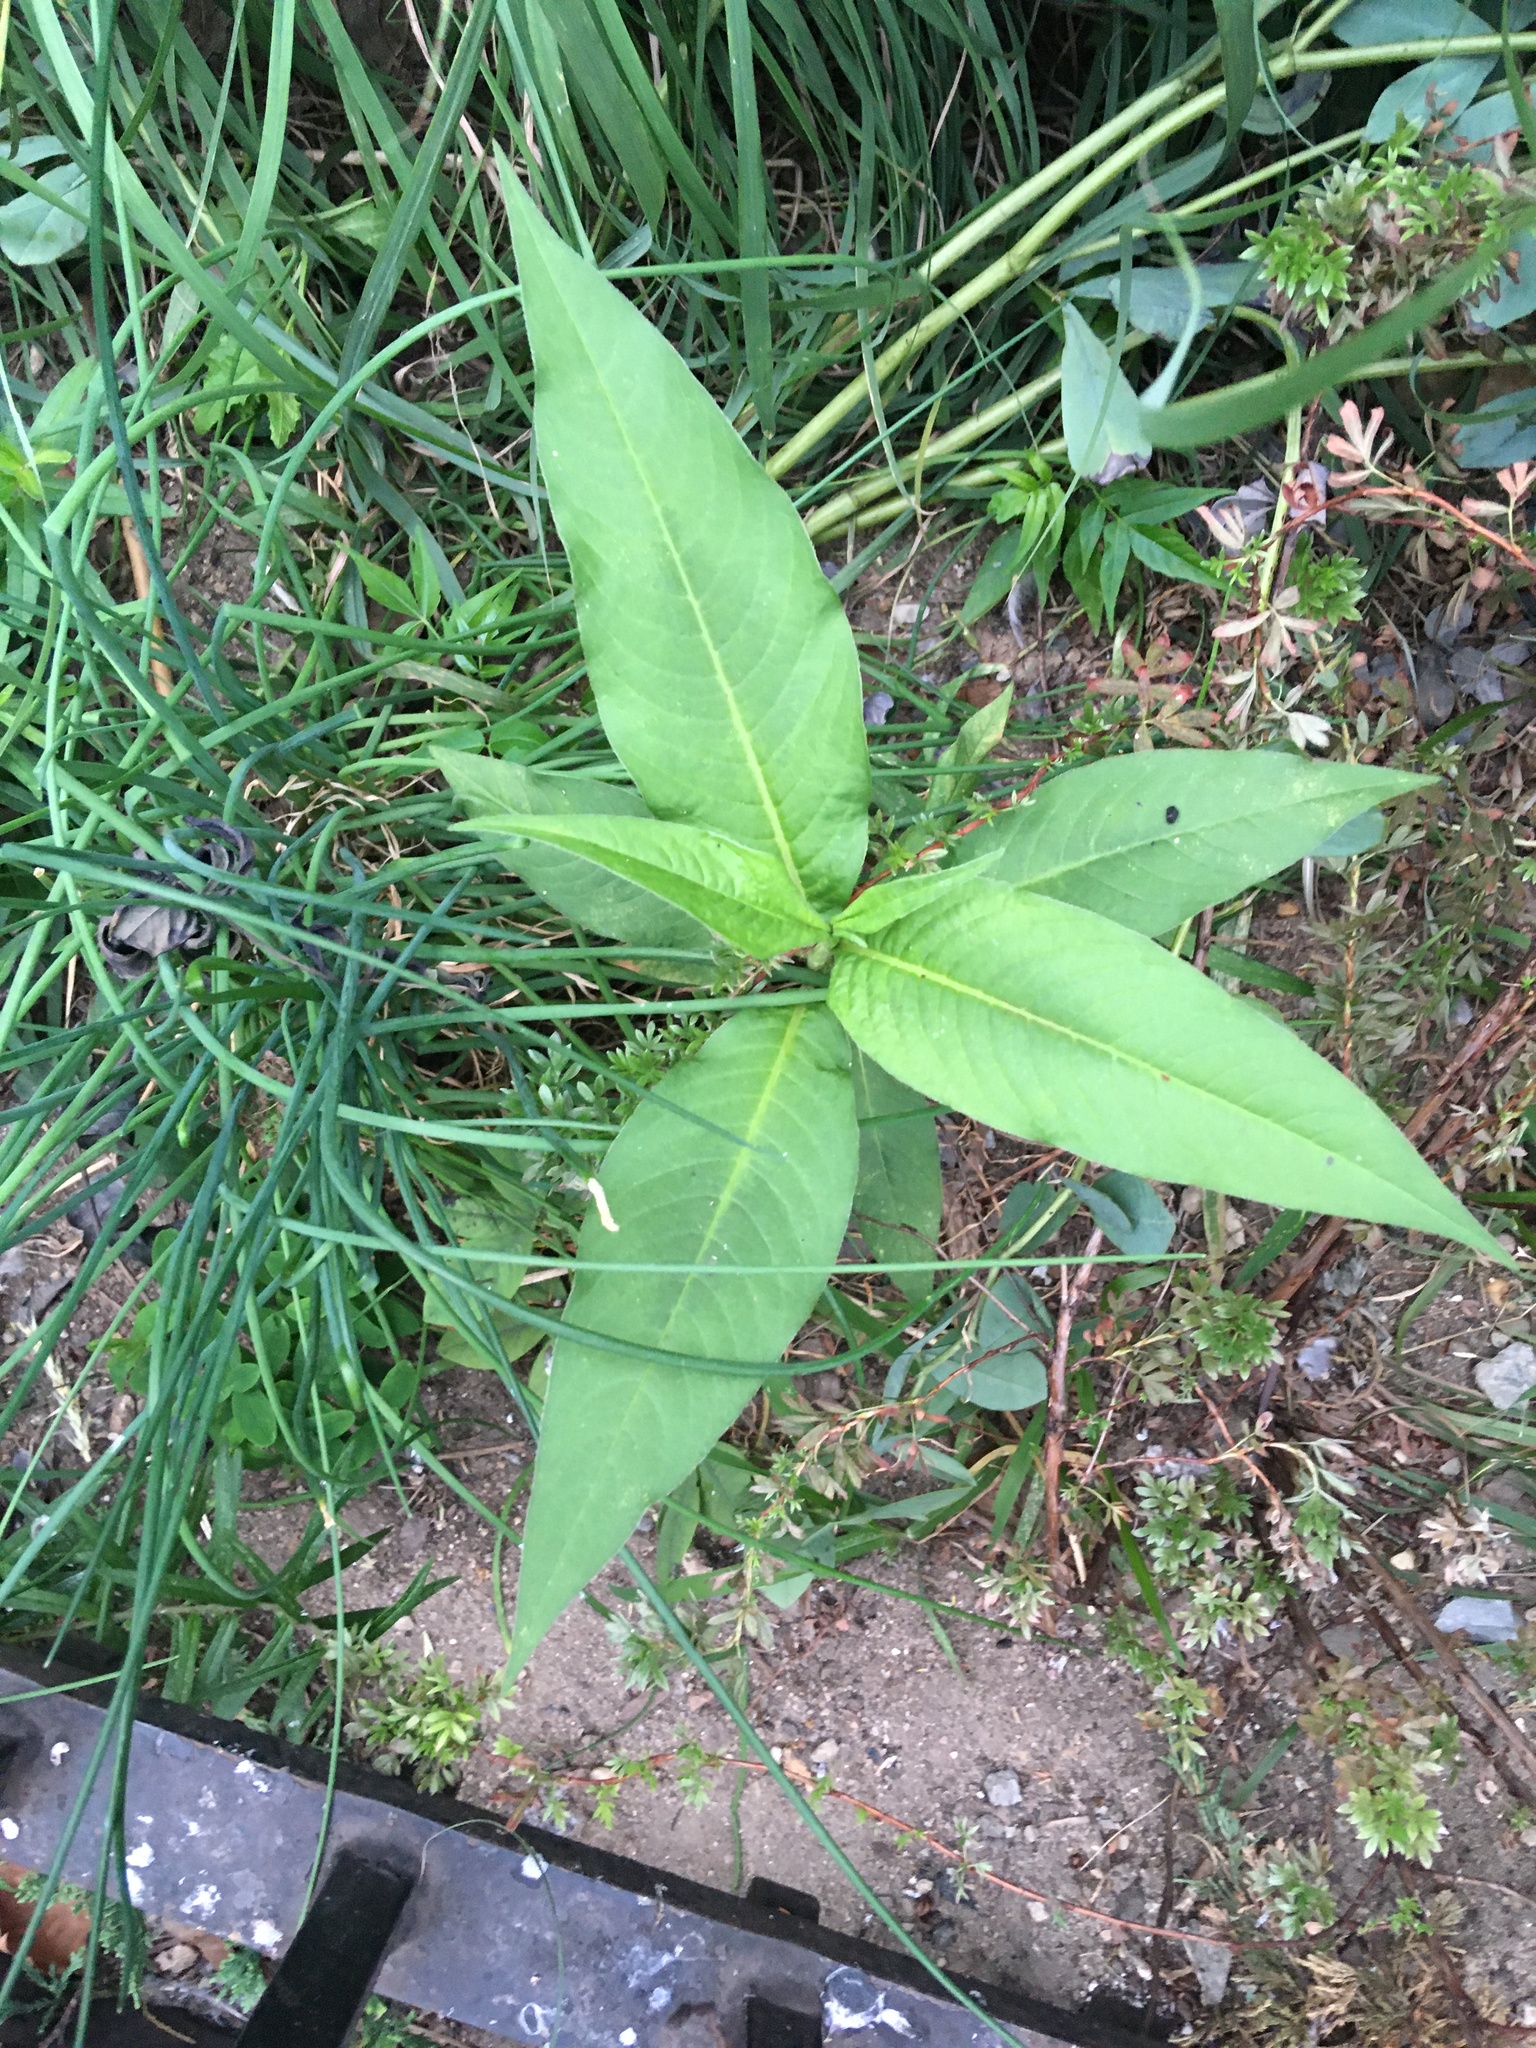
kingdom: Plantae
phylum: Tracheophyta
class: Magnoliopsida
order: Caryophyllales
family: Polygonaceae
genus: Persicaria
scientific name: Persicaria extremiorientalis
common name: Far-eastern smartweed
